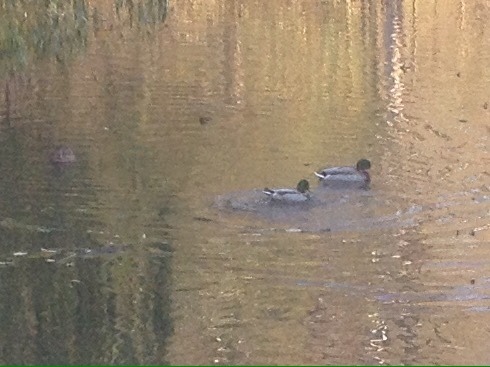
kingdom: Animalia
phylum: Chordata
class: Aves
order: Anseriformes
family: Anatidae
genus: Anas
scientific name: Anas platyrhynchos
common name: Mallard
